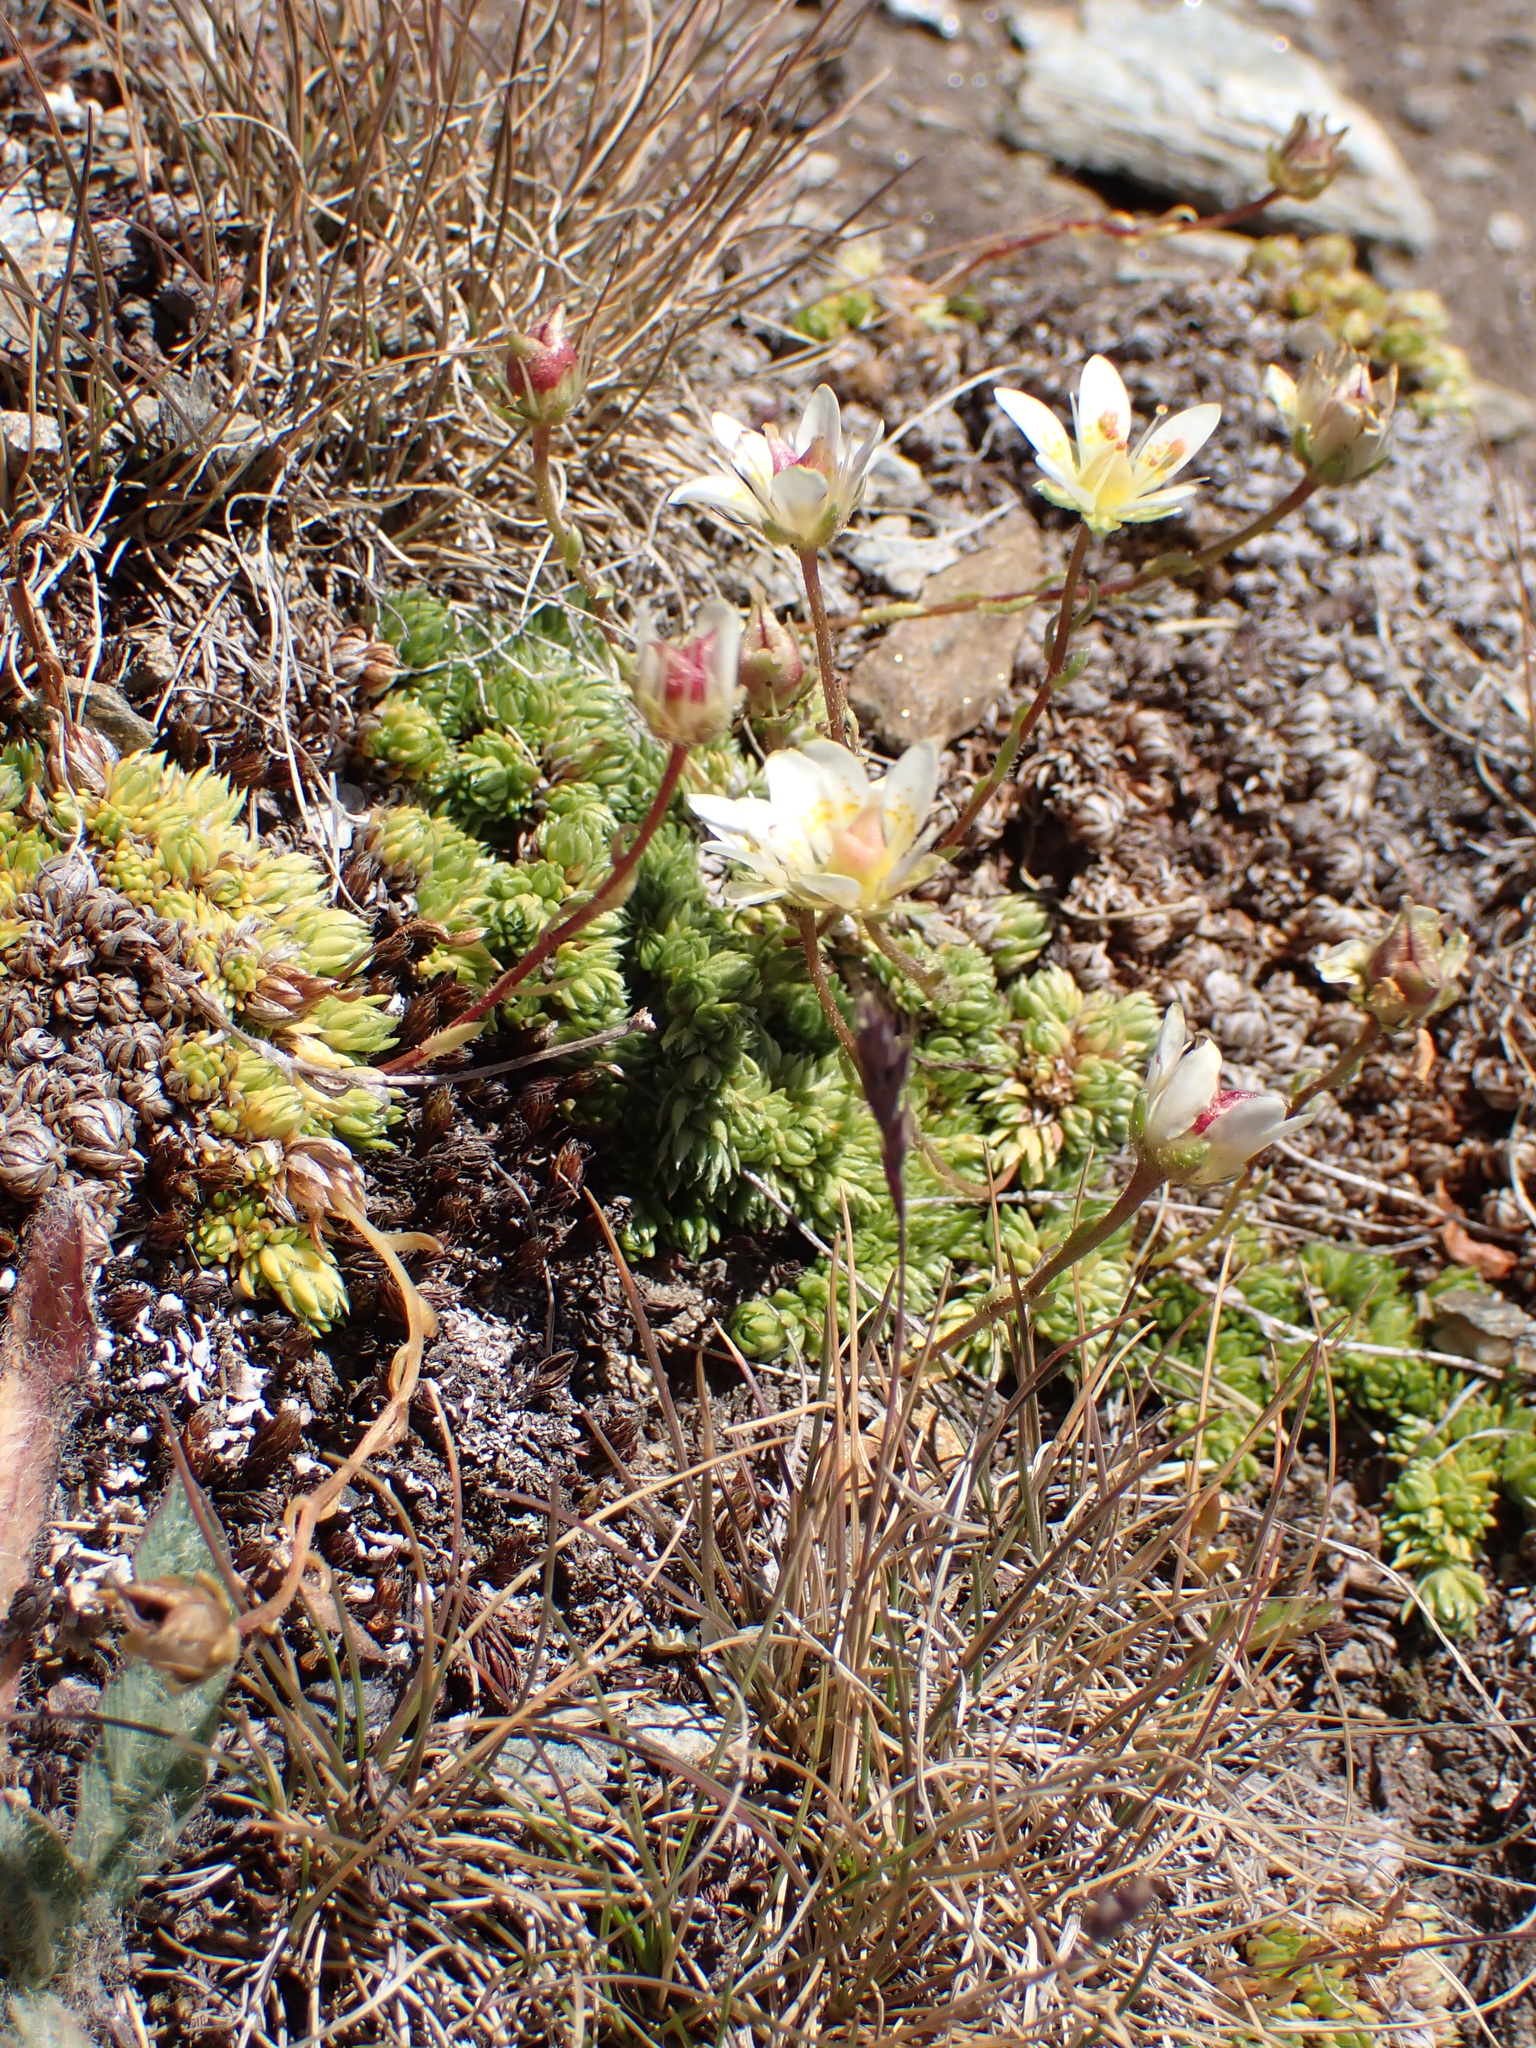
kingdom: Plantae
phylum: Tracheophyta
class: Magnoliopsida
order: Saxifragales
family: Saxifragaceae
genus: Saxifraga
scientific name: Saxifraga bryoides
